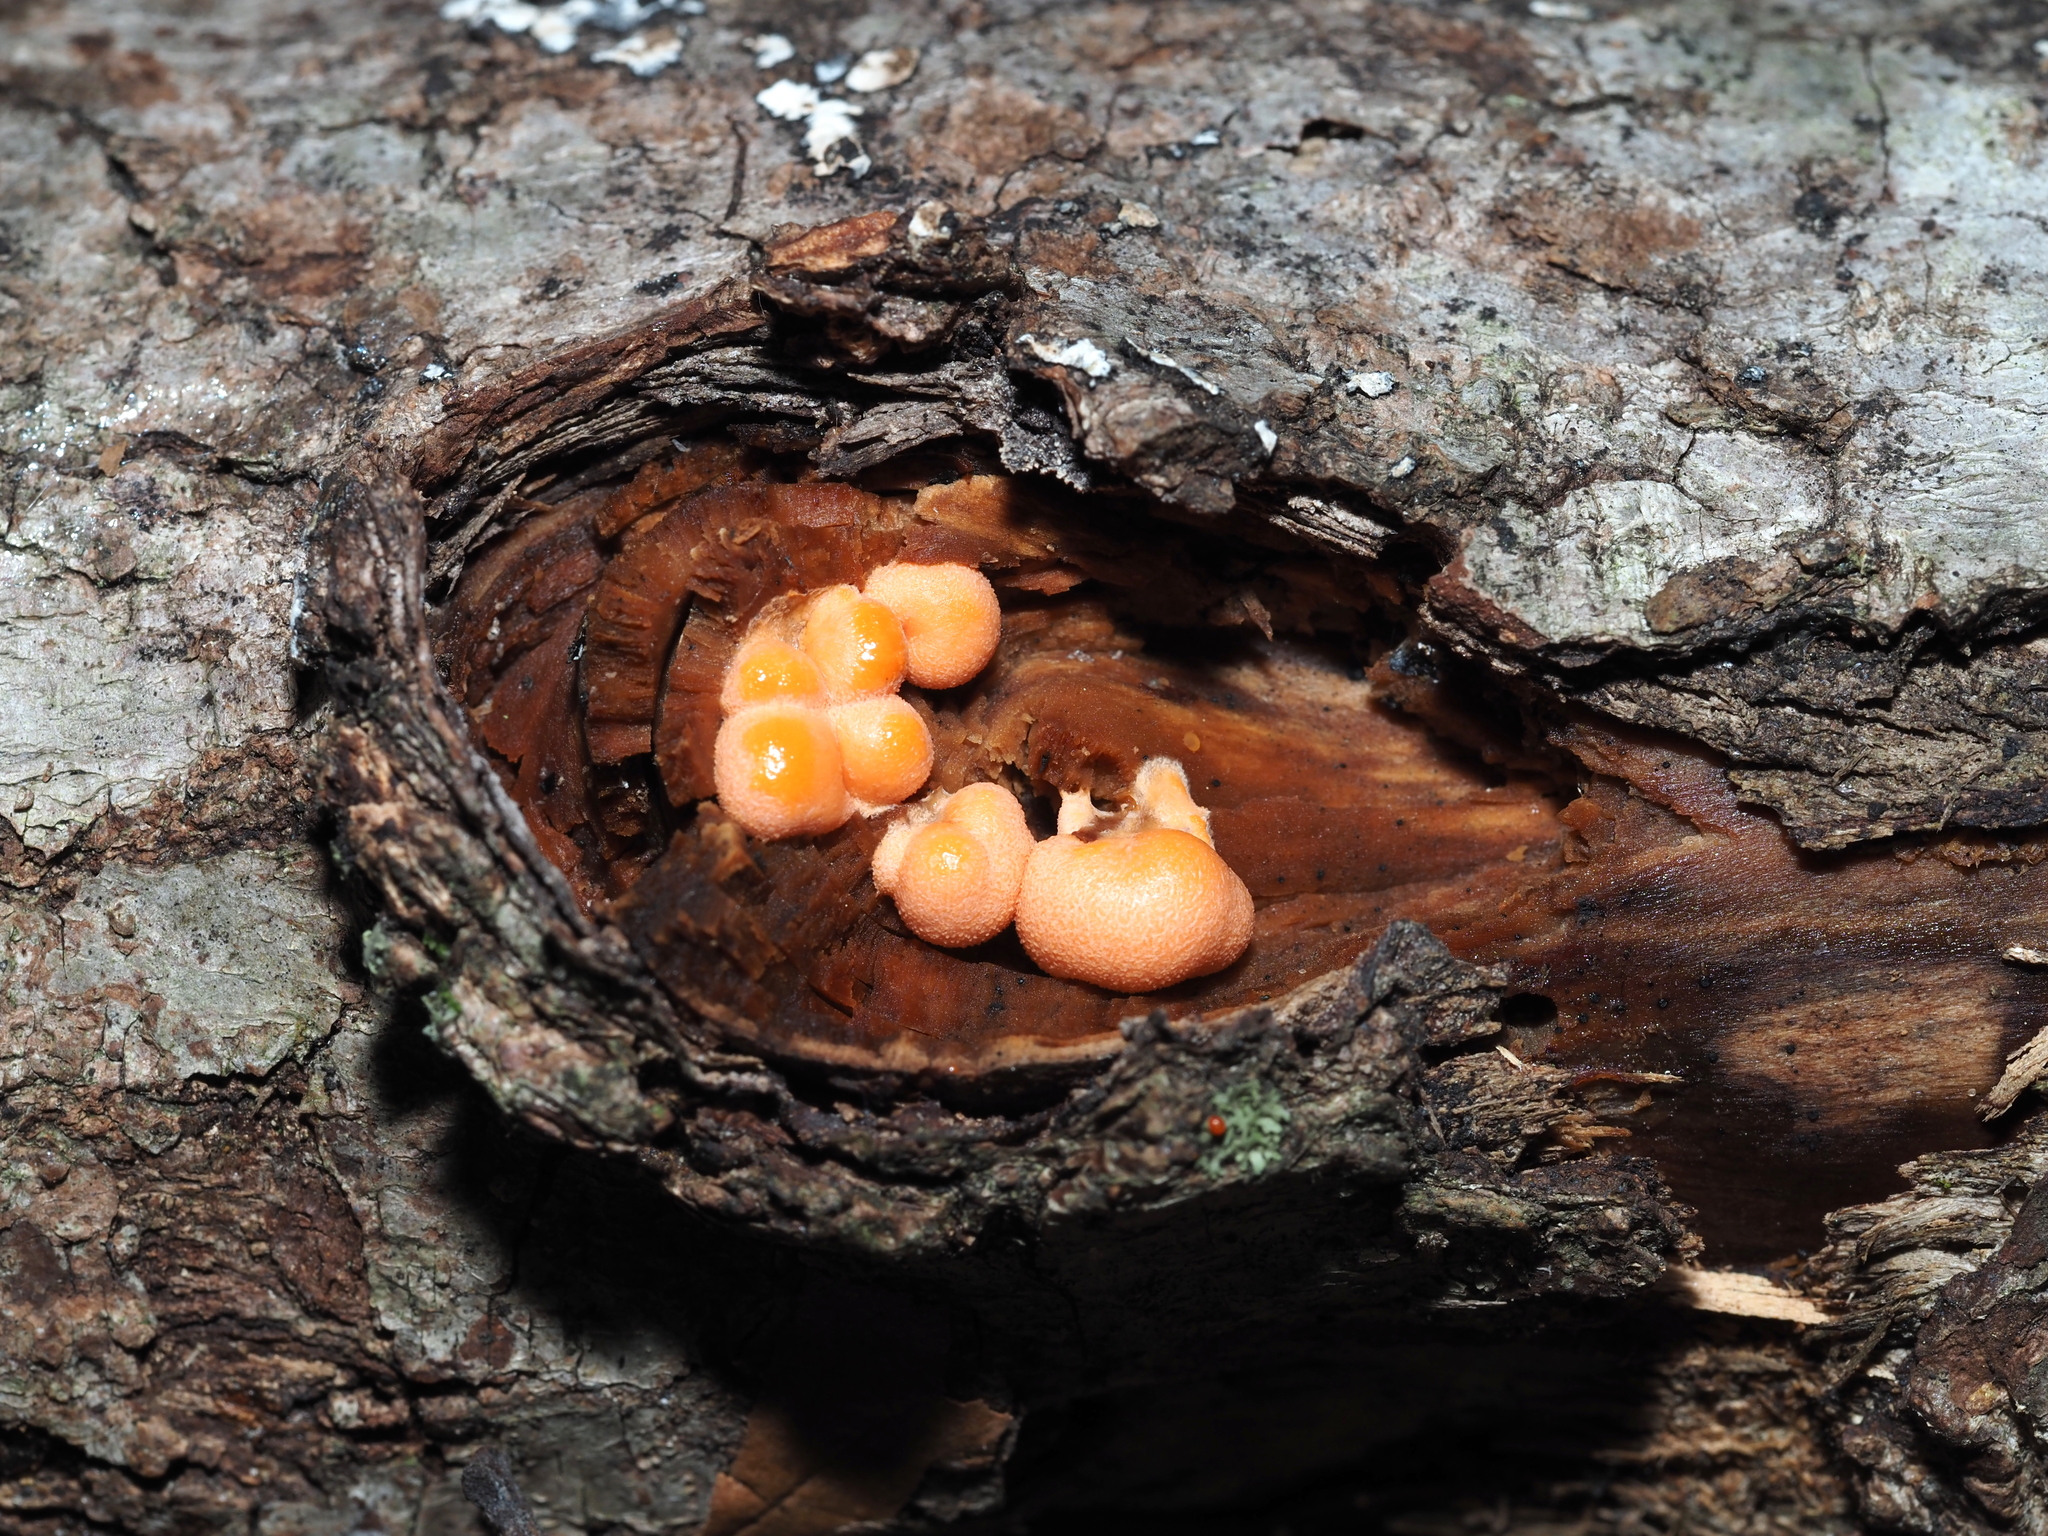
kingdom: Protozoa
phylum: Mycetozoa
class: Myxomycetes
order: Cribrariales
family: Tubiferaceae
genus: Lycogala
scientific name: Lycogala epidendrum
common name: Wolf's milk
